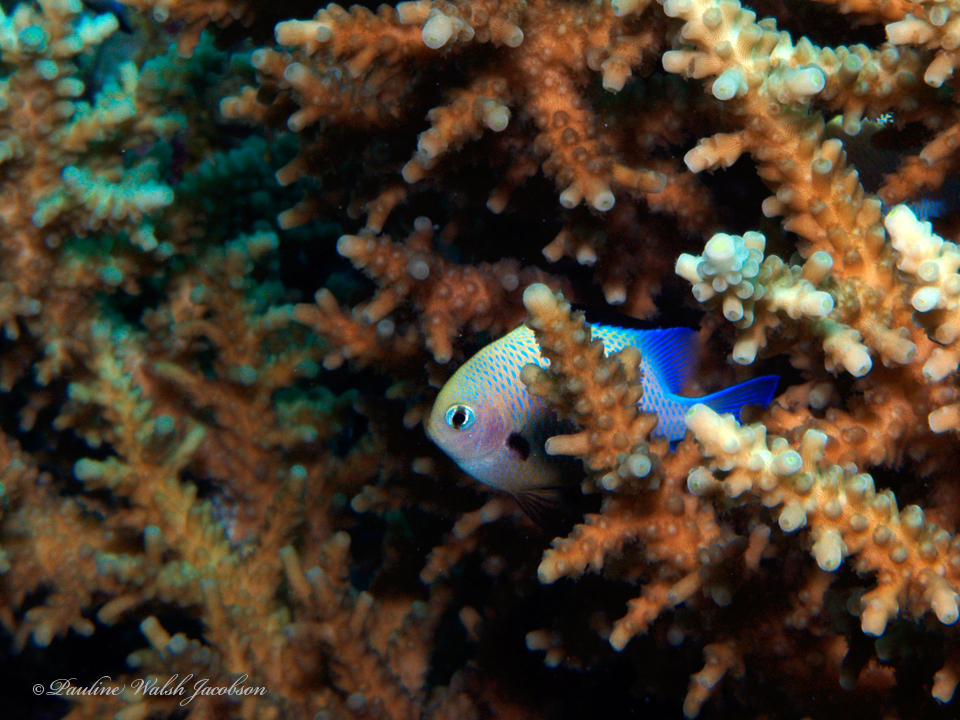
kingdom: Animalia
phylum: Chordata
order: Perciformes
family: Pomacentridae
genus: Dascyllus
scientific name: Dascyllus marginatus
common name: Red sea dascyllus
